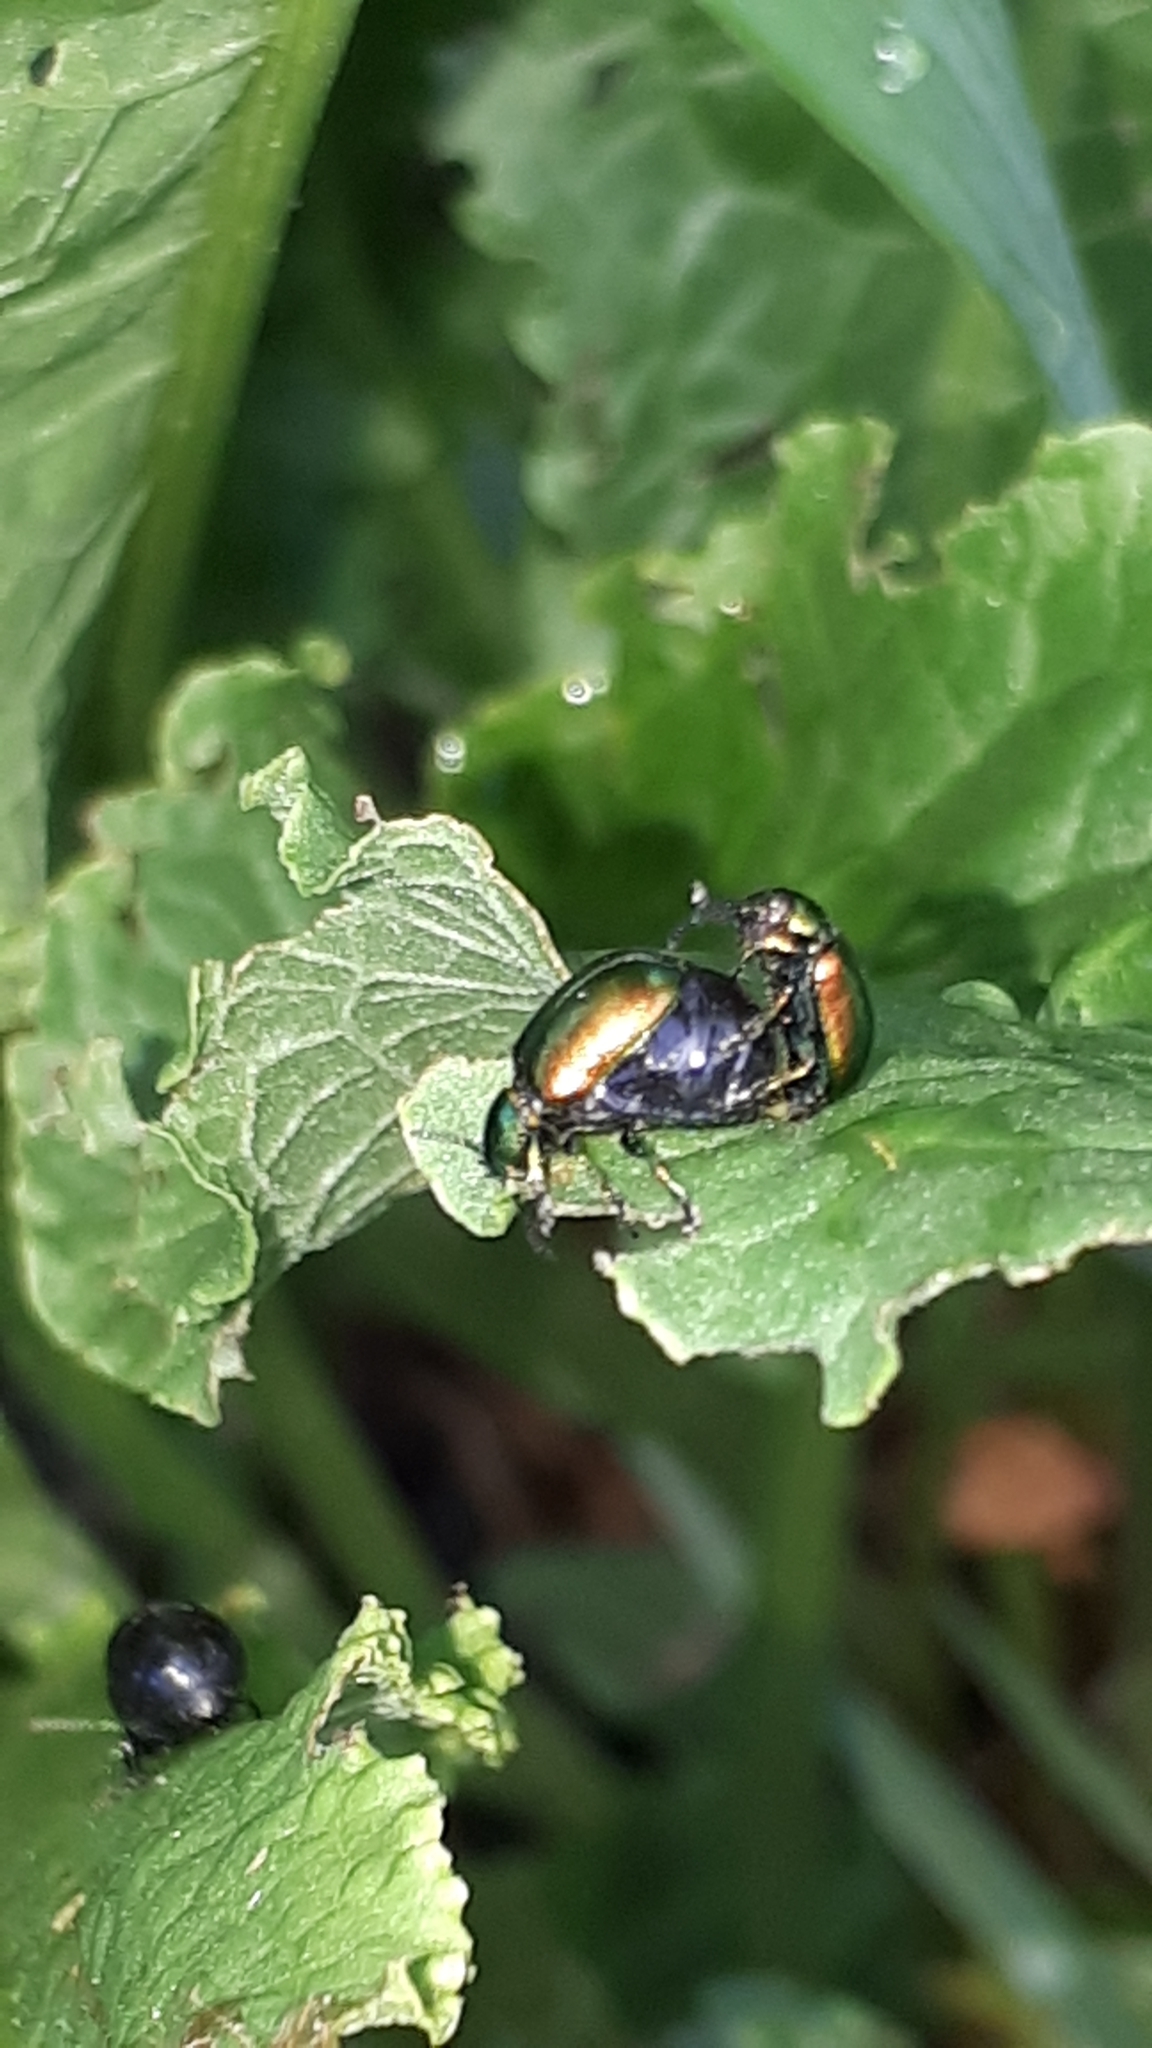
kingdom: Animalia
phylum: Arthropoda
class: Insecta
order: Coleoptera
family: Chrysomelidae
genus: Gastrophysa
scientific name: Gastrophysa viridula
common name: Green dock beetle
